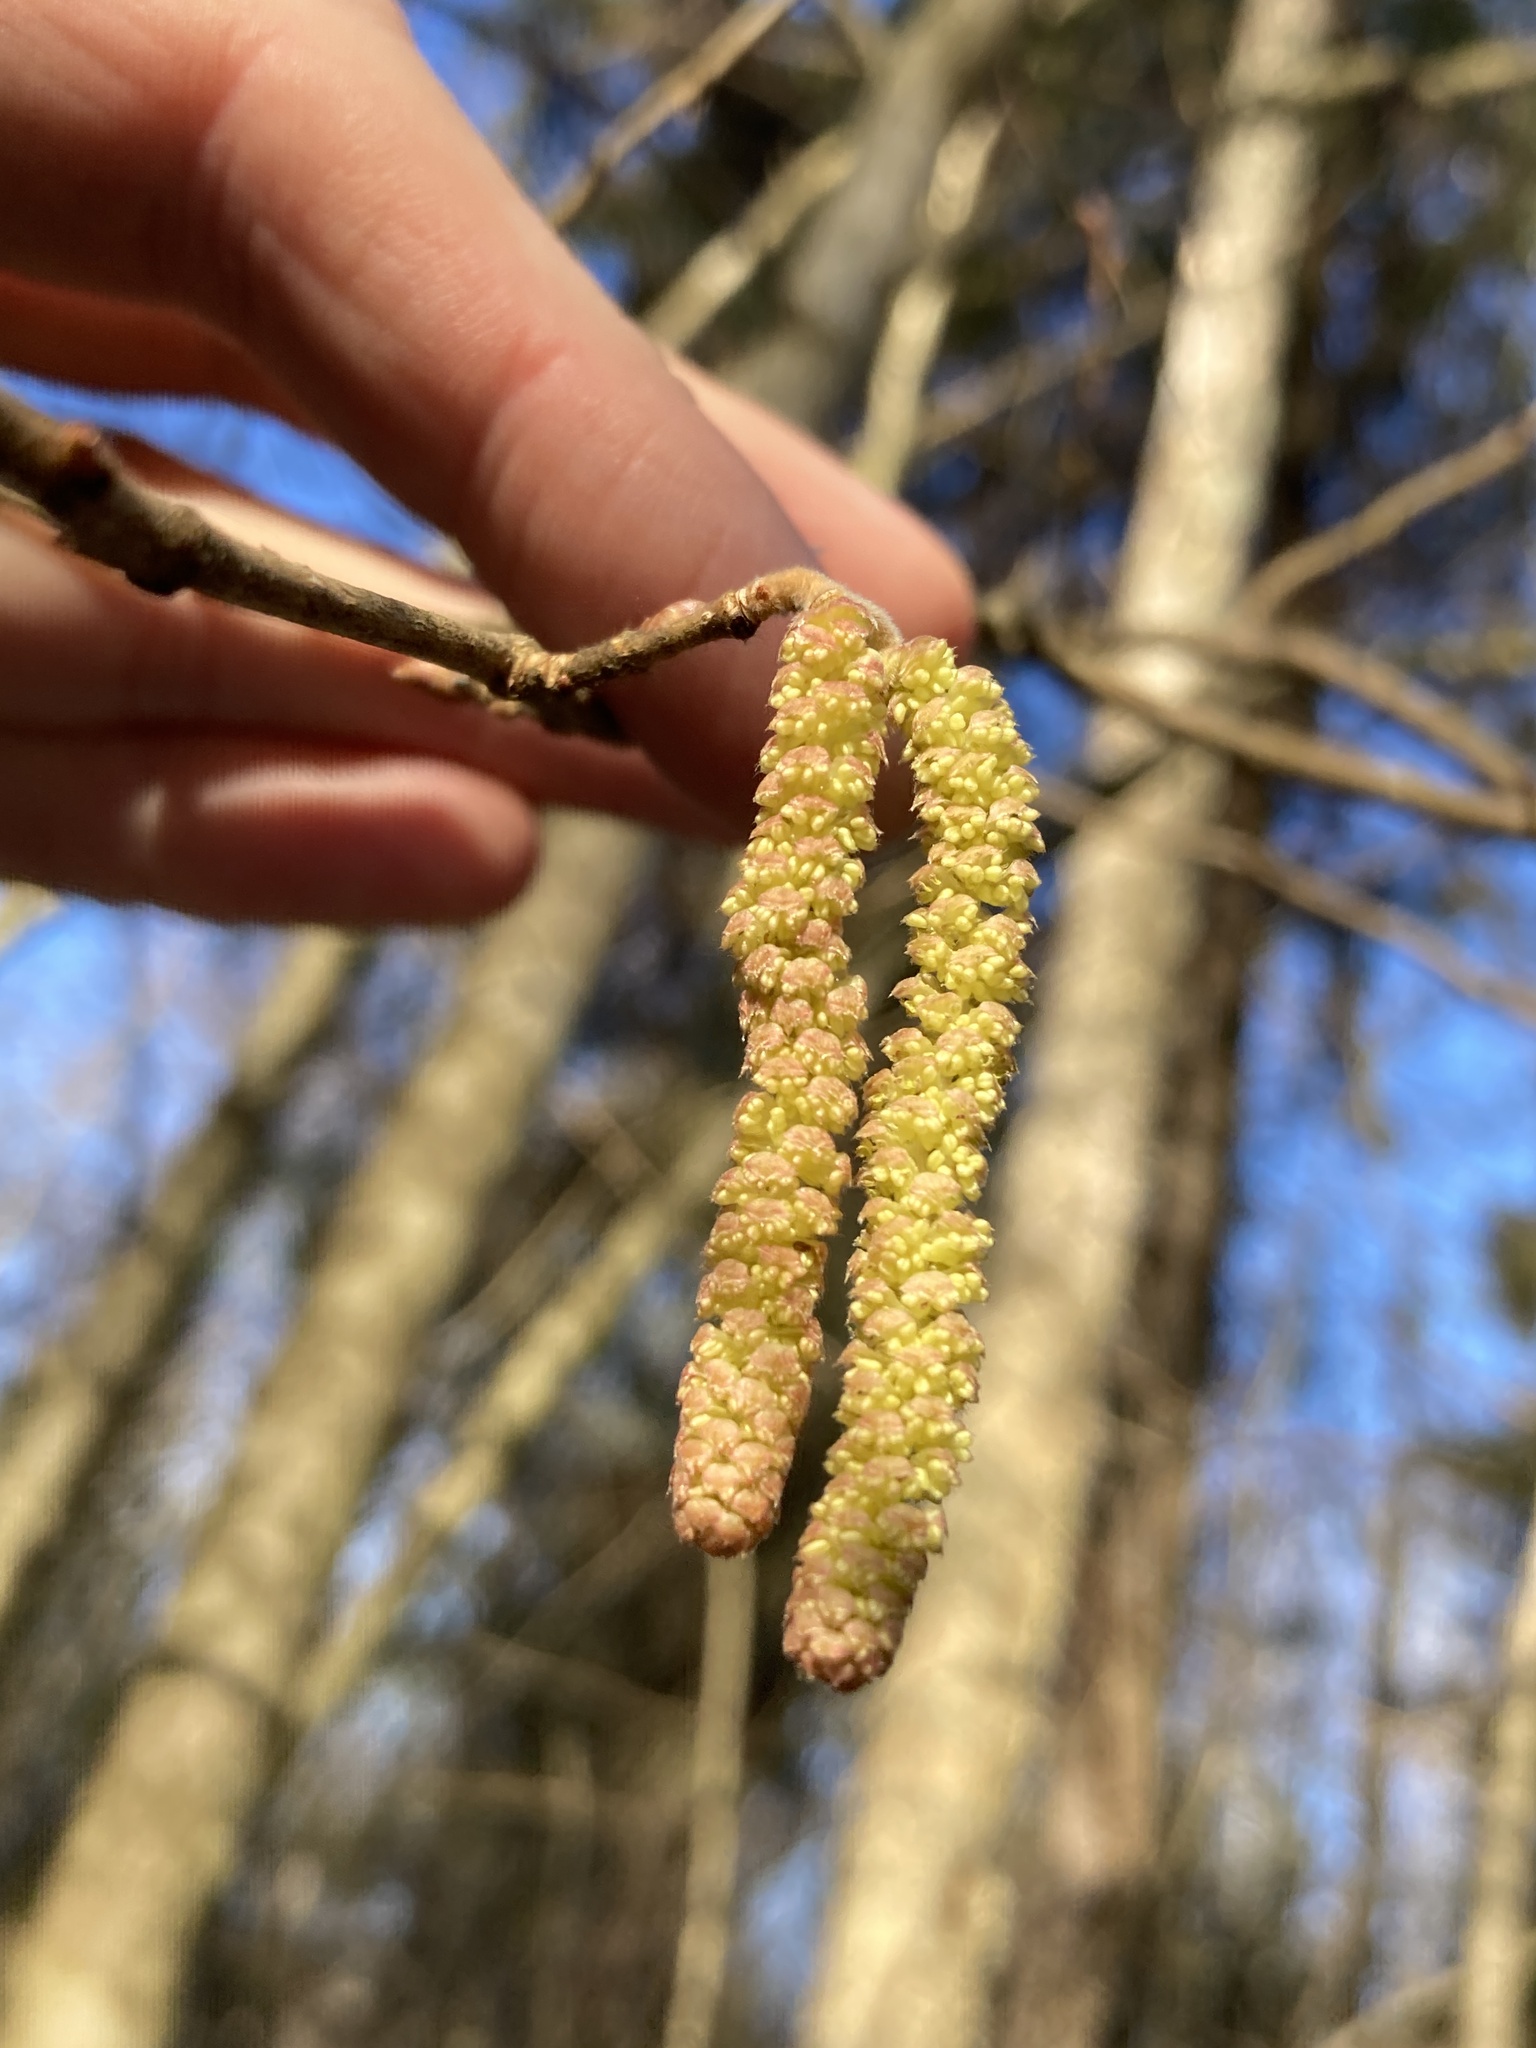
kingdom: Plantae
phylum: Tracheophyta
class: Magnoliopsida
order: Fagales
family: Betulaceae
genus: Corylus
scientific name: Corylus avellana
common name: European hazel
